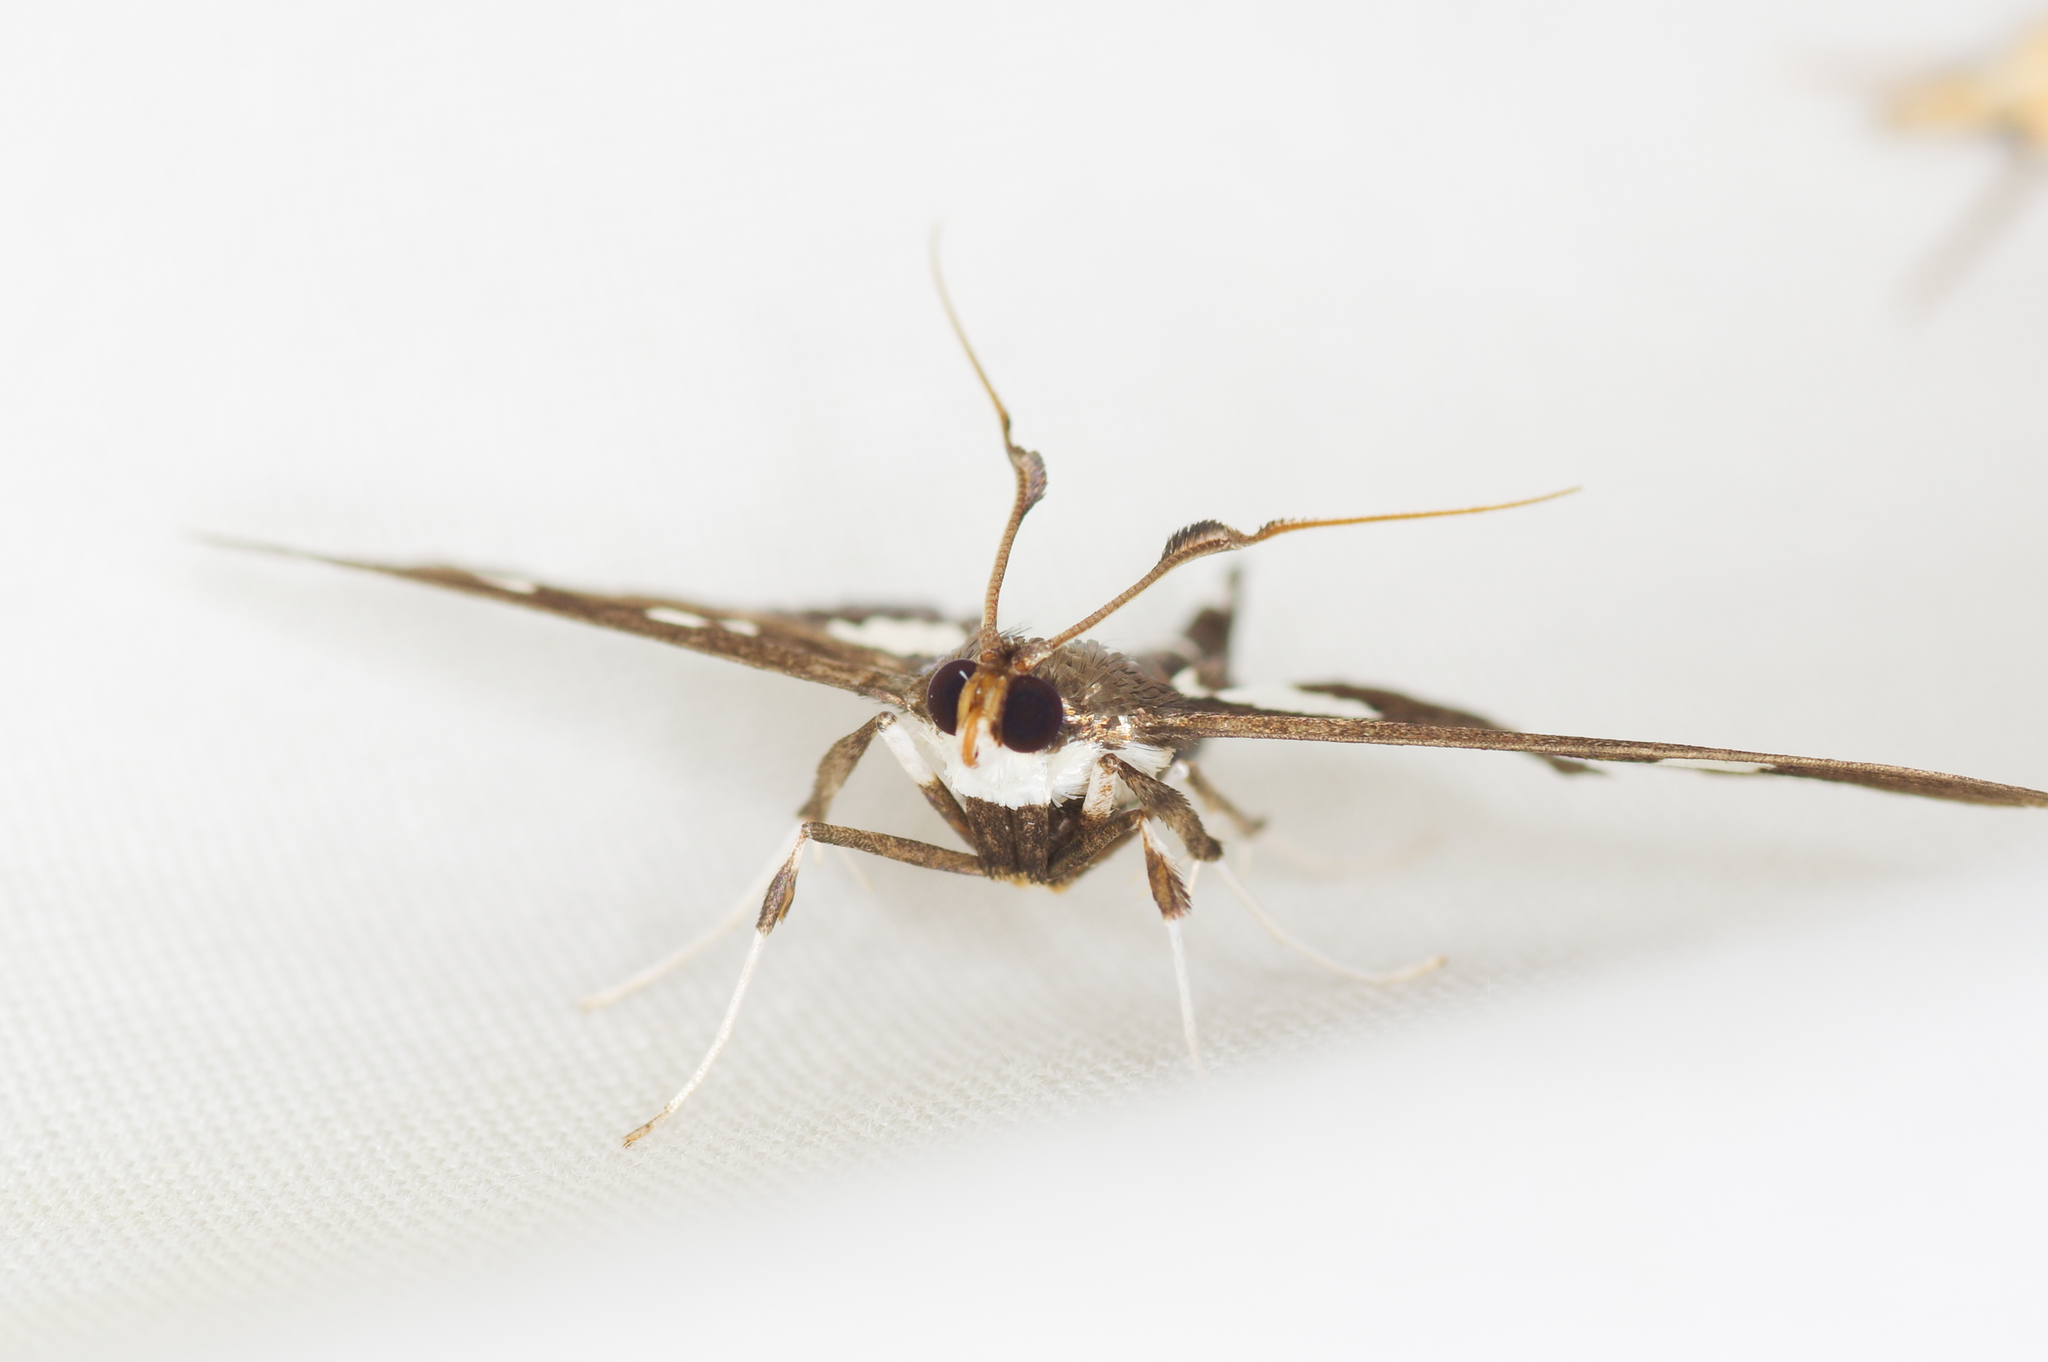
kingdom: Animalia
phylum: Arthropoda
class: Insecta
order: Lepidoptera
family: Crambidae
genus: Desmia
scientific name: Desmia
